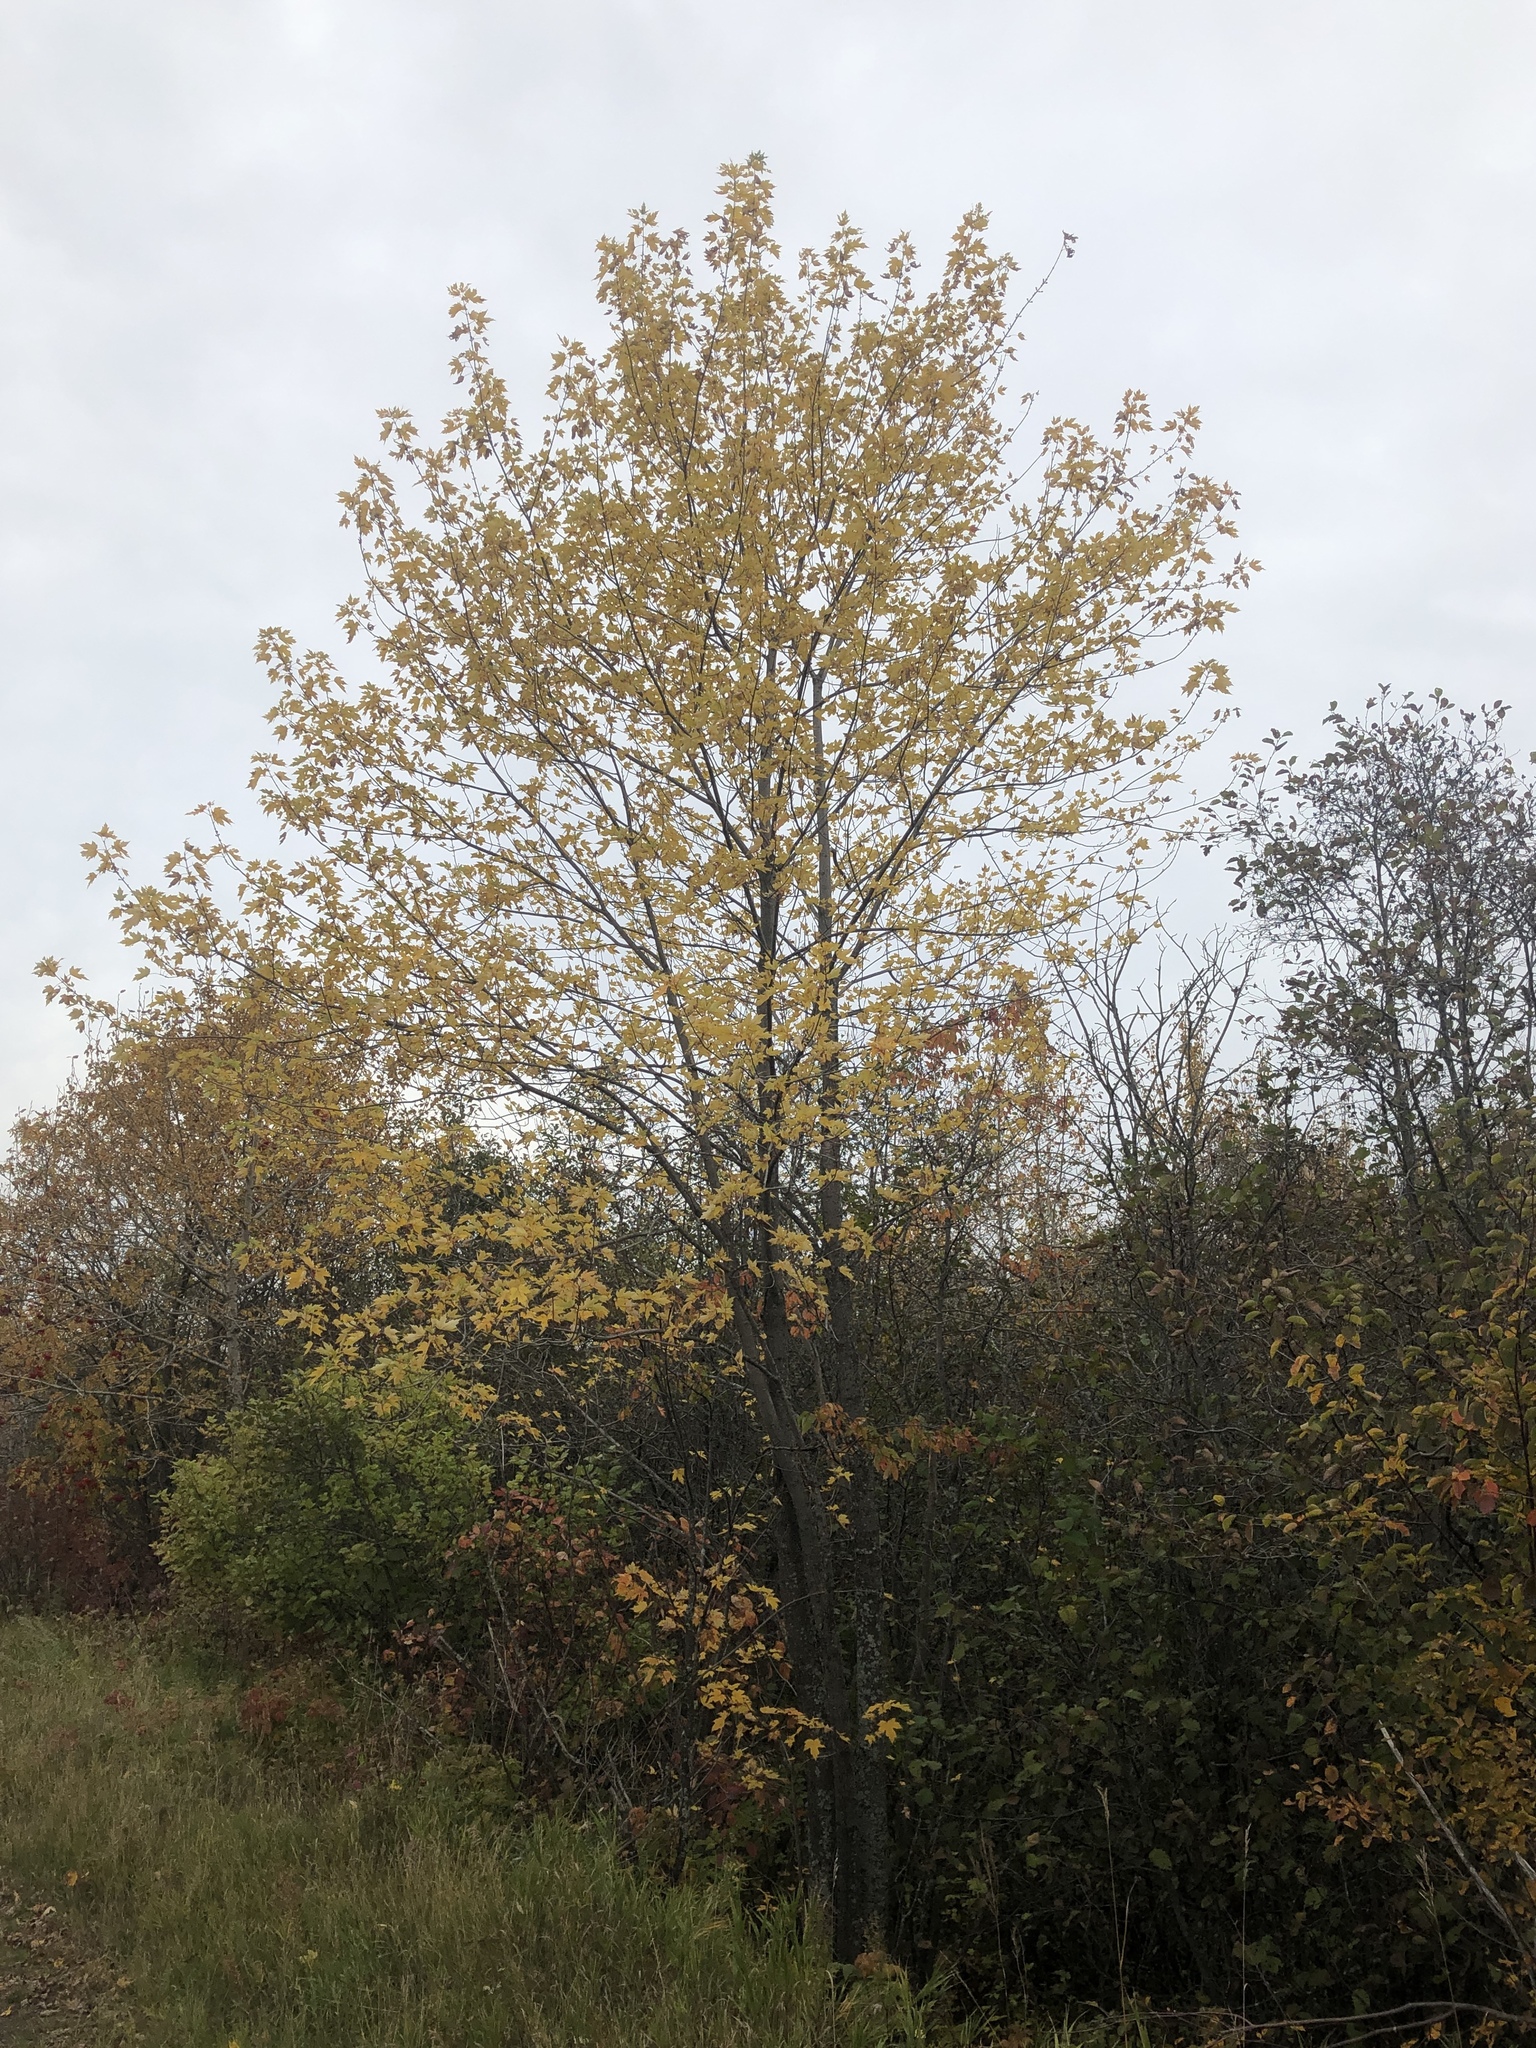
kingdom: Plantae
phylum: Tracheophyta
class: Magnoliopsida
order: Sapindales
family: Sapindaceae
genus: Acer
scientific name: Acer freemanii
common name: Freeman maple
